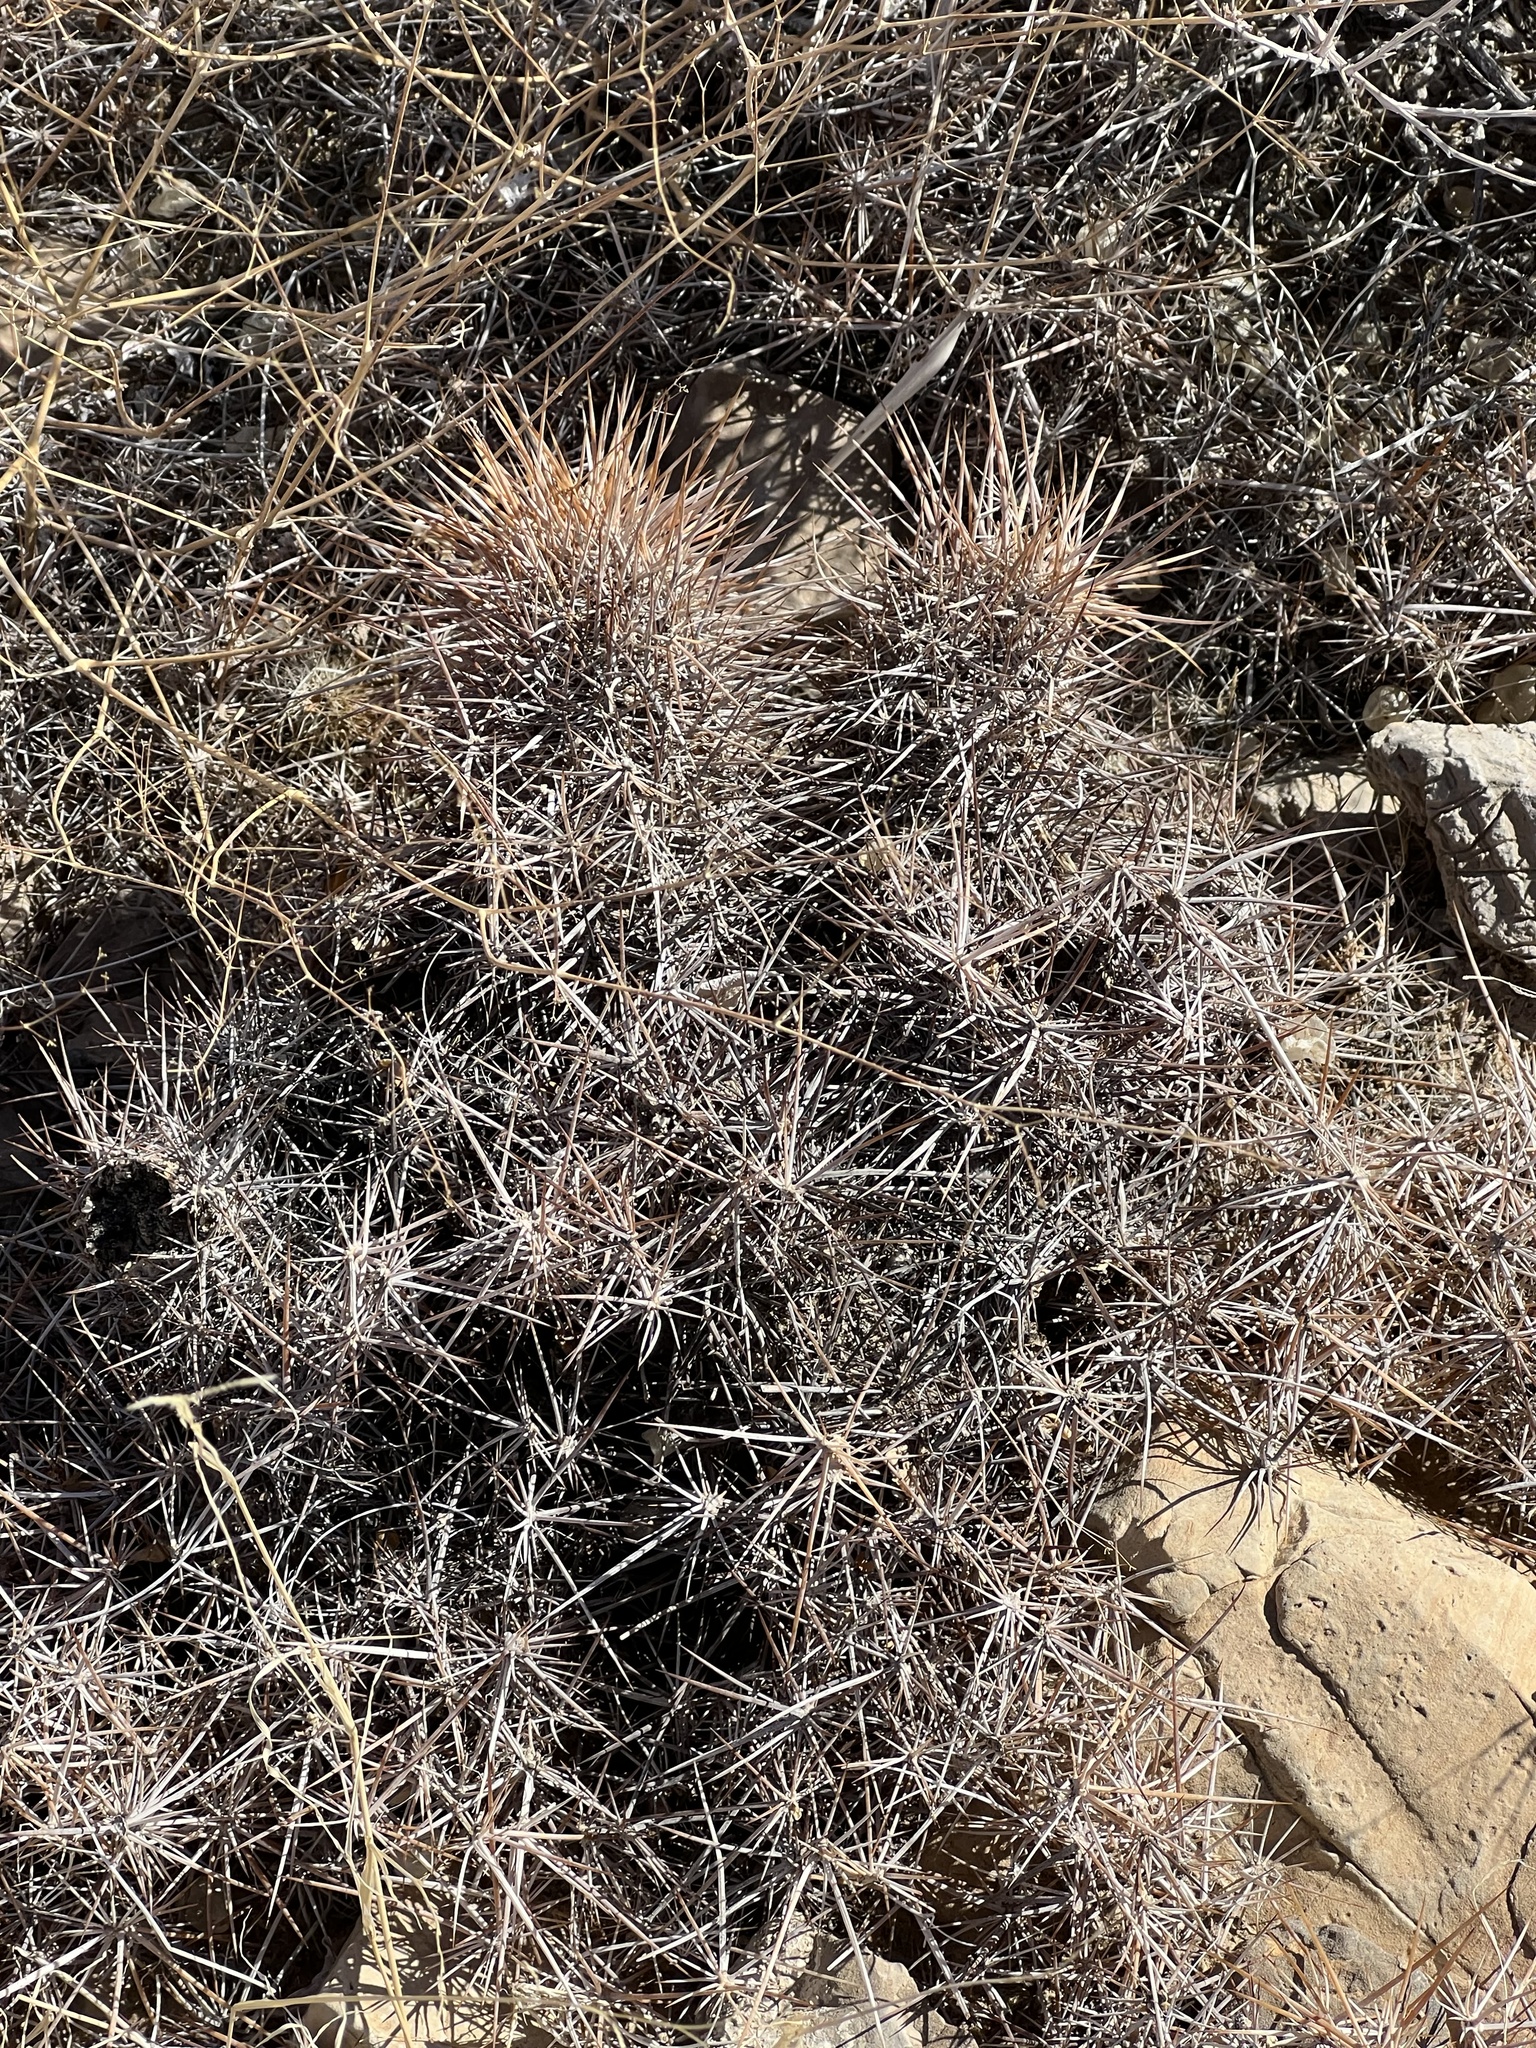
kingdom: Plantae
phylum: Tracheophyta
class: Magnoliopsida
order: Caryophyllales
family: Cactaceae
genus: Echinocereus
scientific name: Echinocereus engelmannii
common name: Engelmann's hedgehog cactus
